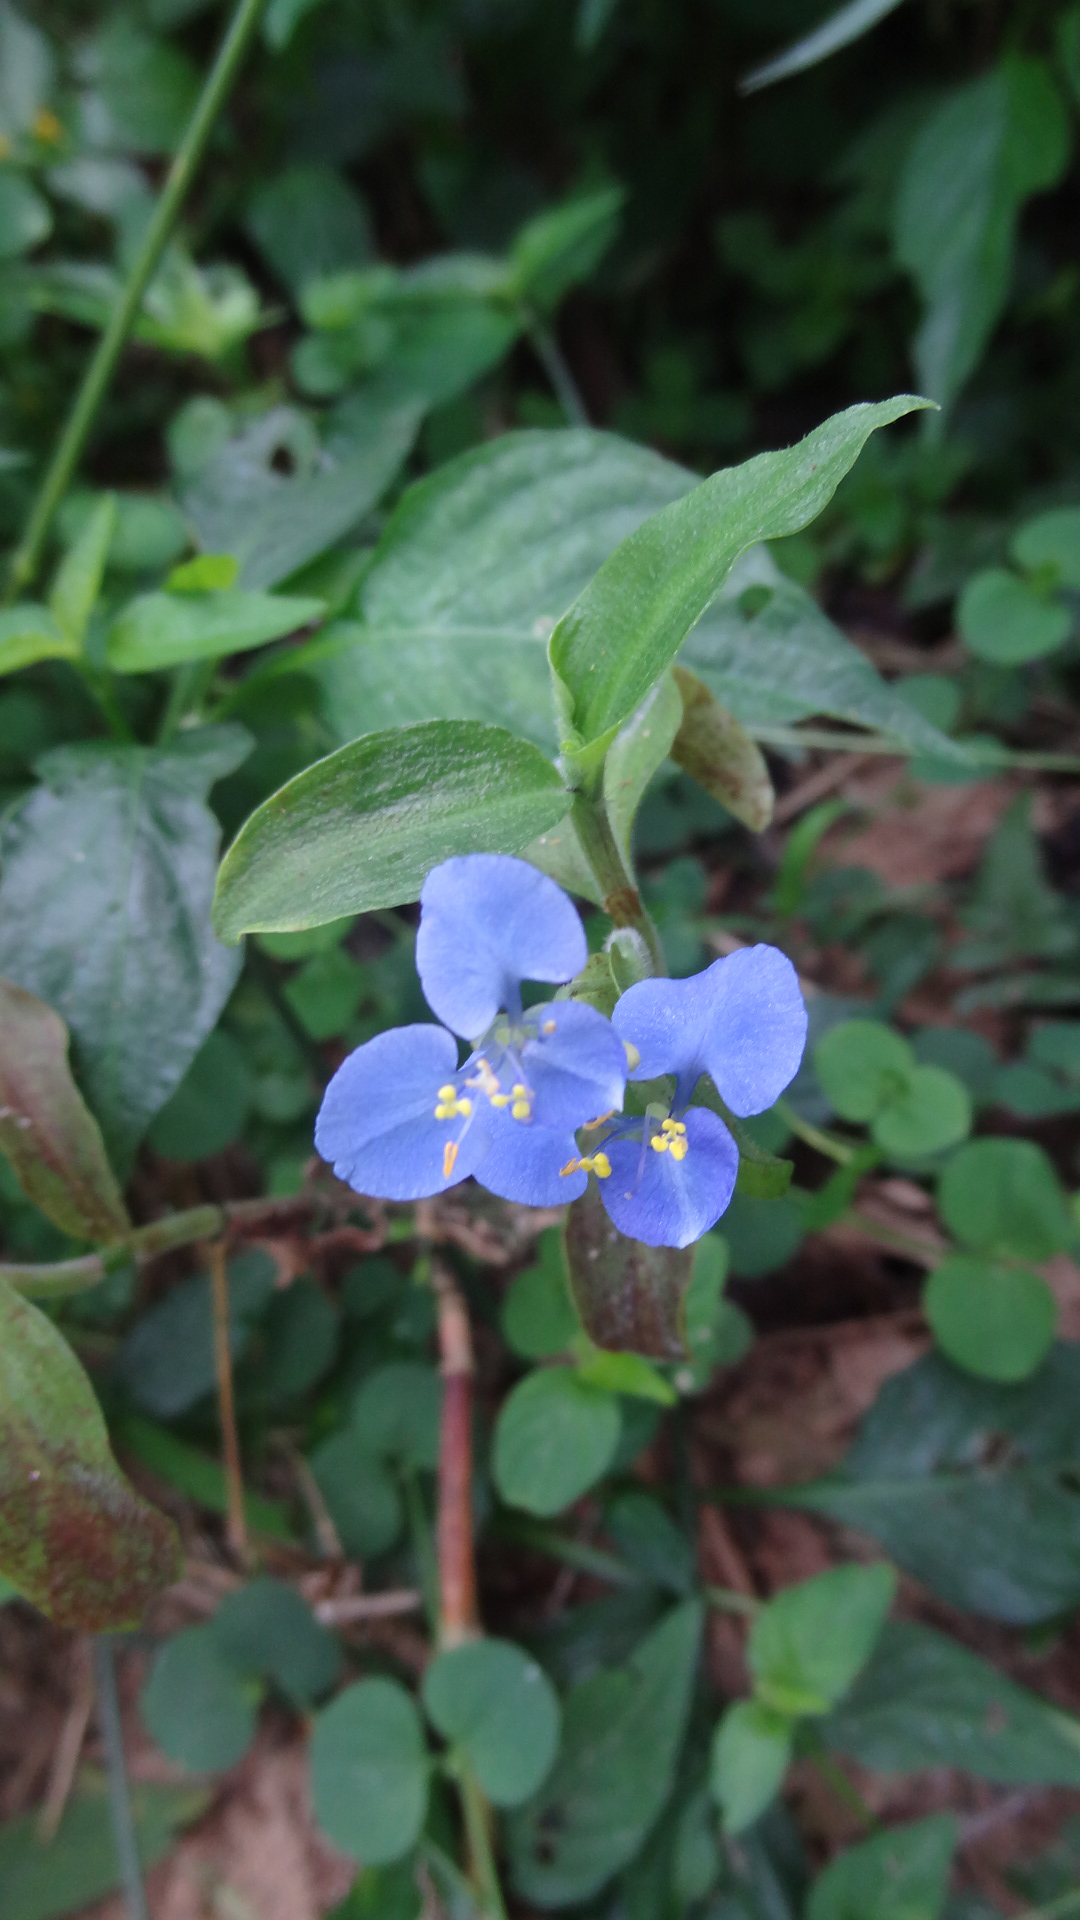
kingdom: Plantae
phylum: Tracheophyta
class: Liliopsida
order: Commelinales
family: Commelinaceae
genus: Commelina
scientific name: Commelina diffusa
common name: Climbing dayflower
